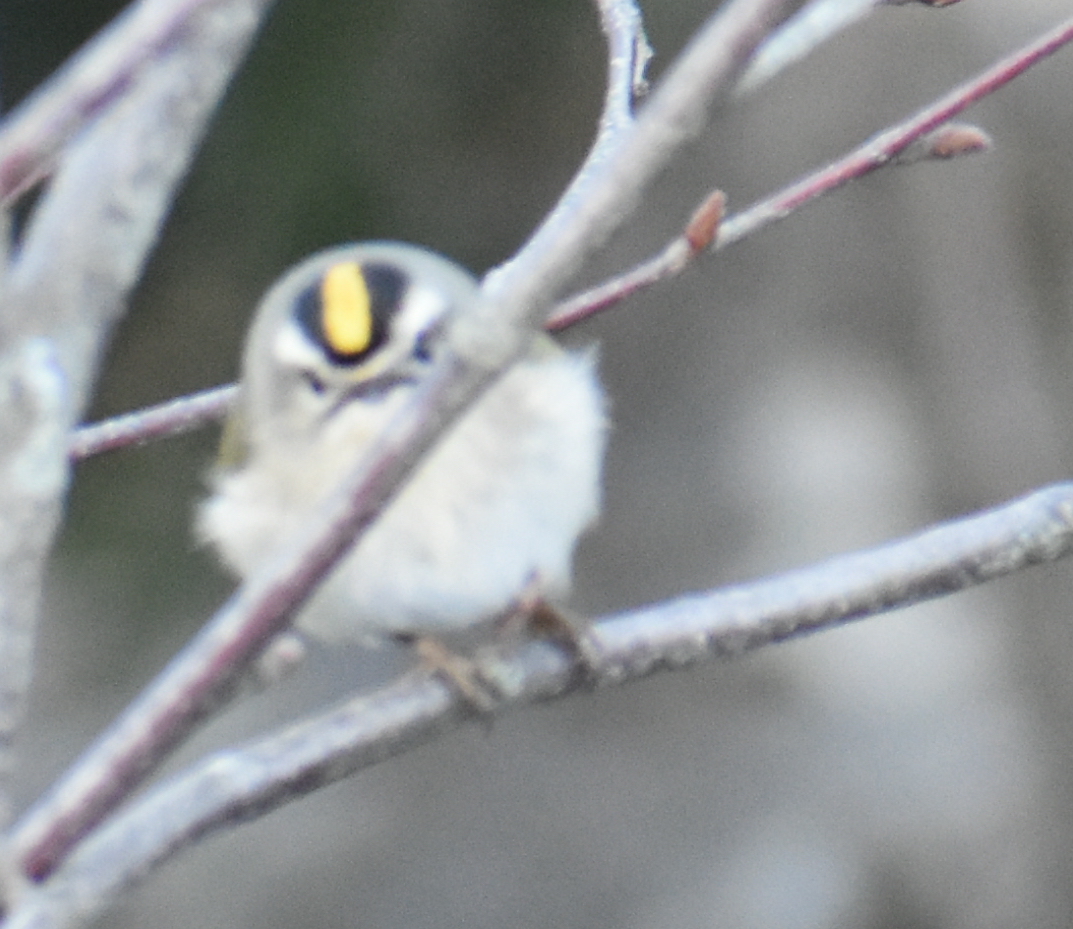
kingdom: Animalia
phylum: Chordata
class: Aves
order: Passeriformes
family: Regulidae
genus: Regulus
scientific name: Regulus satrapa
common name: Golden-crowned kinglet
